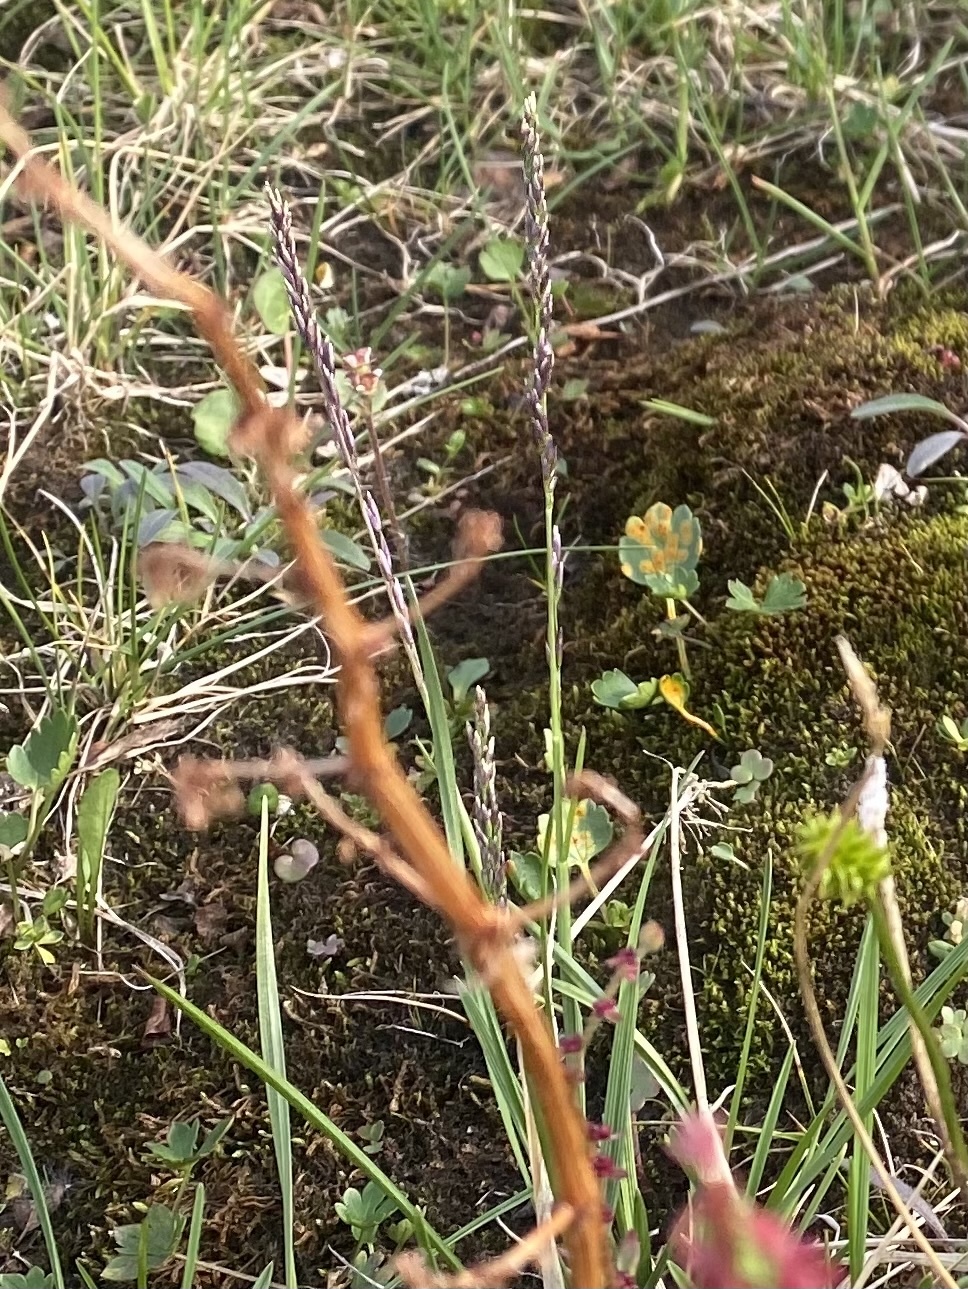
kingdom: Plantae
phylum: Tracheophyta
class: Liliopsida
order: Poales
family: Poaceae
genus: Poa
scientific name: Poa alpigena
